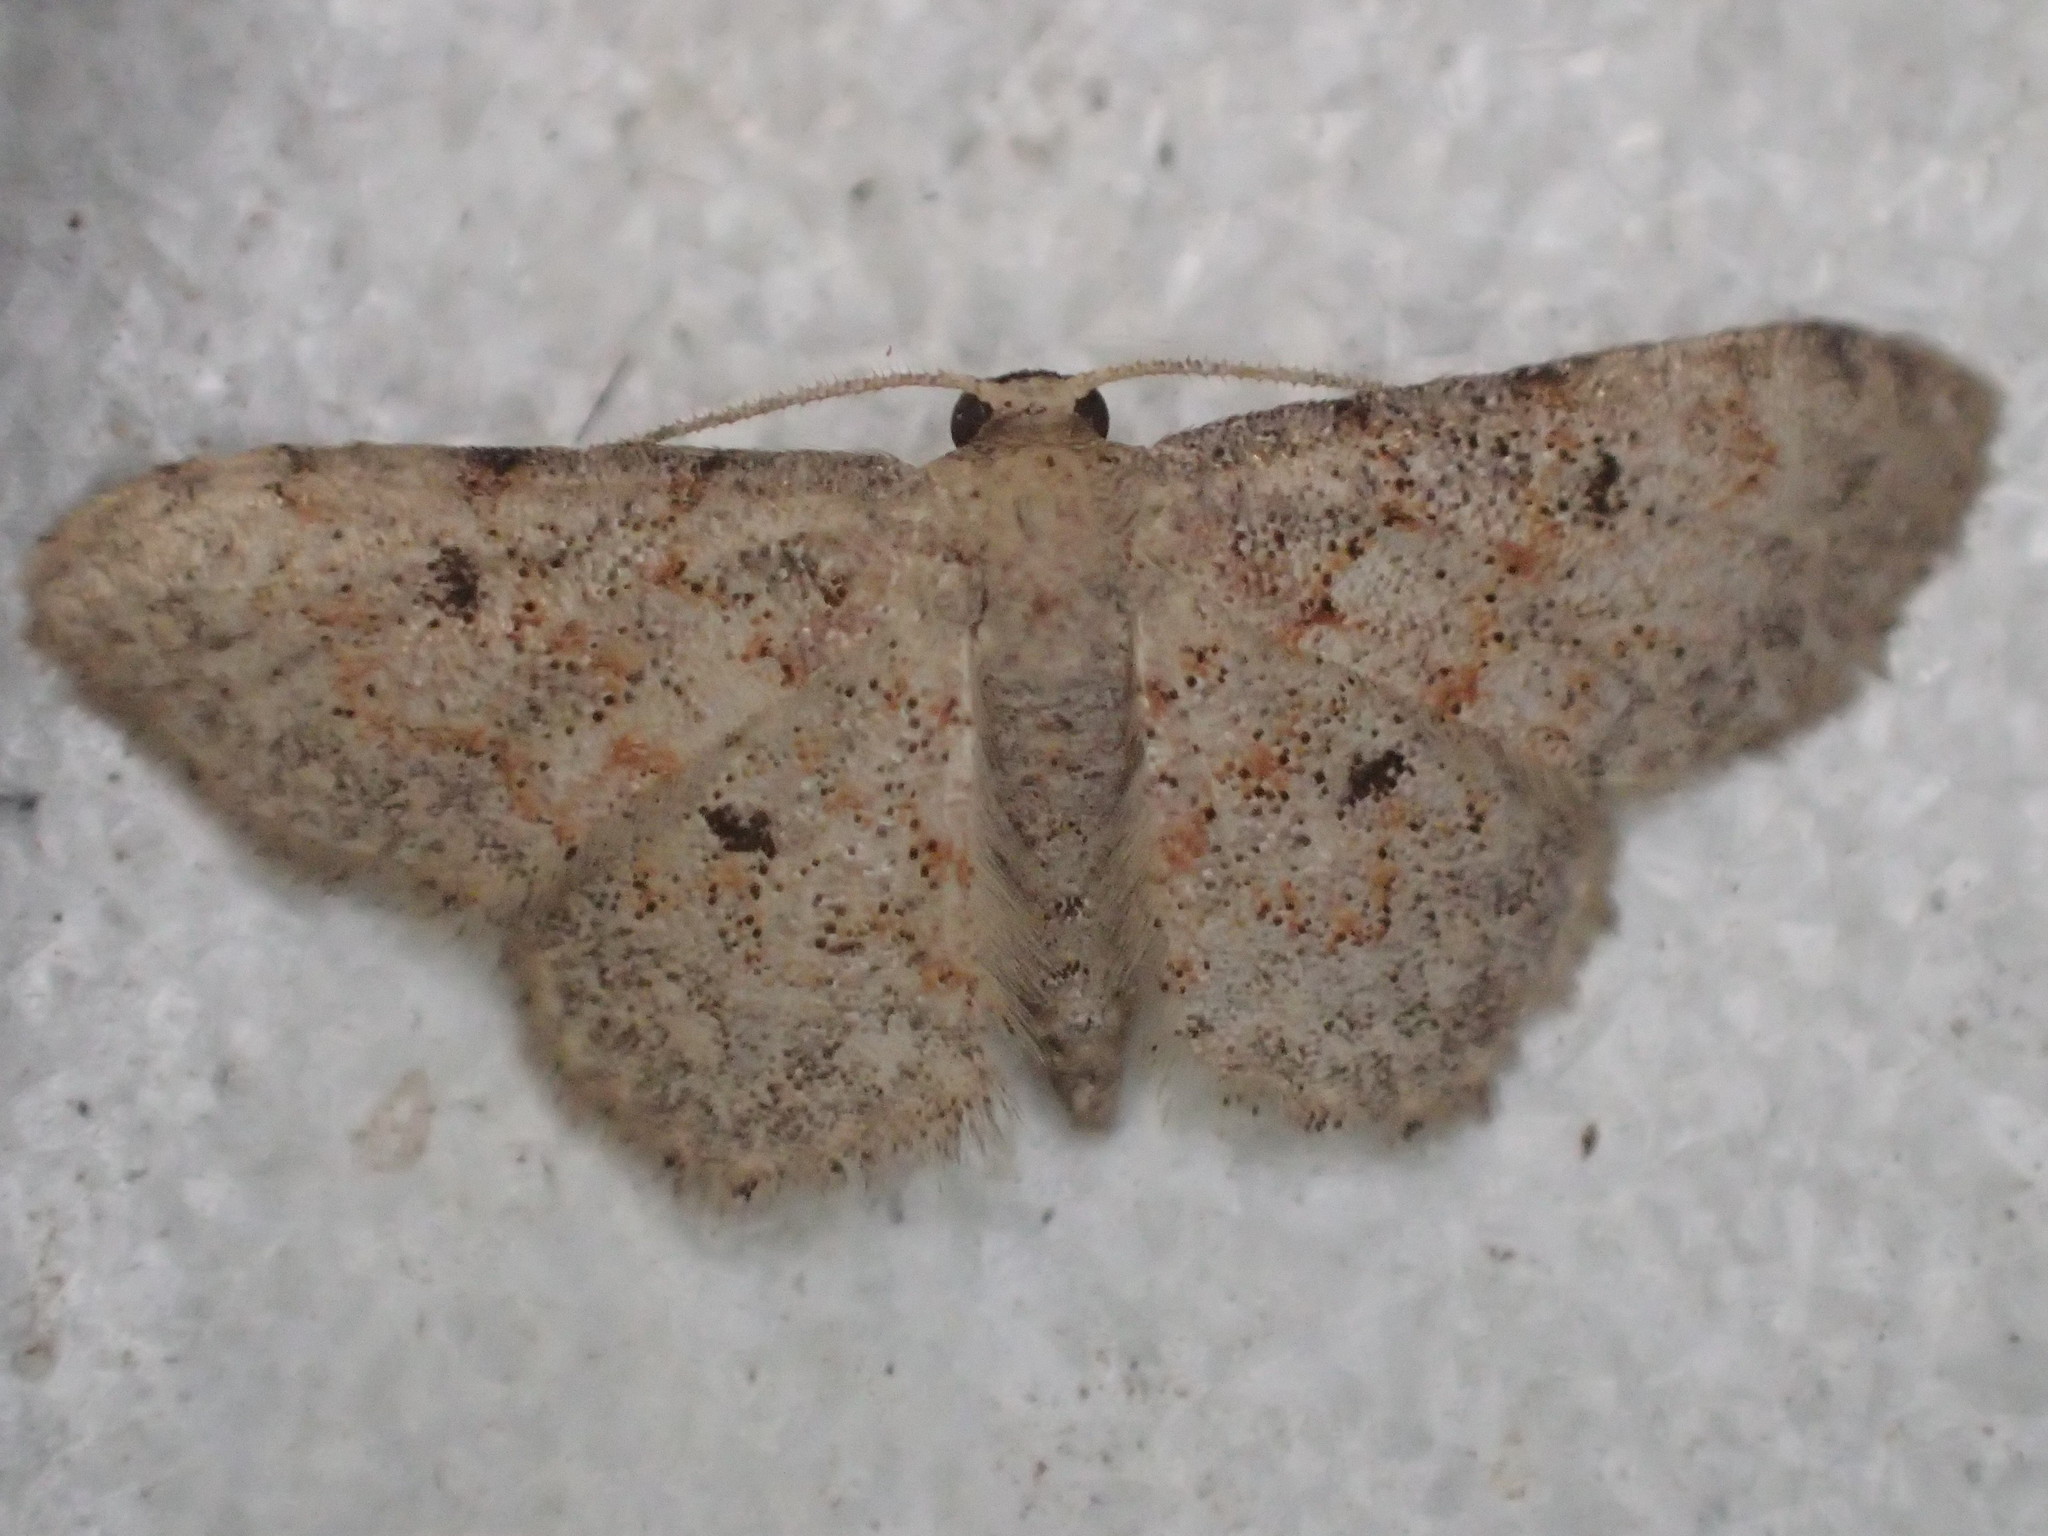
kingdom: Animalia
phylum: Arthropoda
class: Insecta
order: Lepidoptera
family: Geometridae
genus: Idaea
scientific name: Idaea ferrilinea
